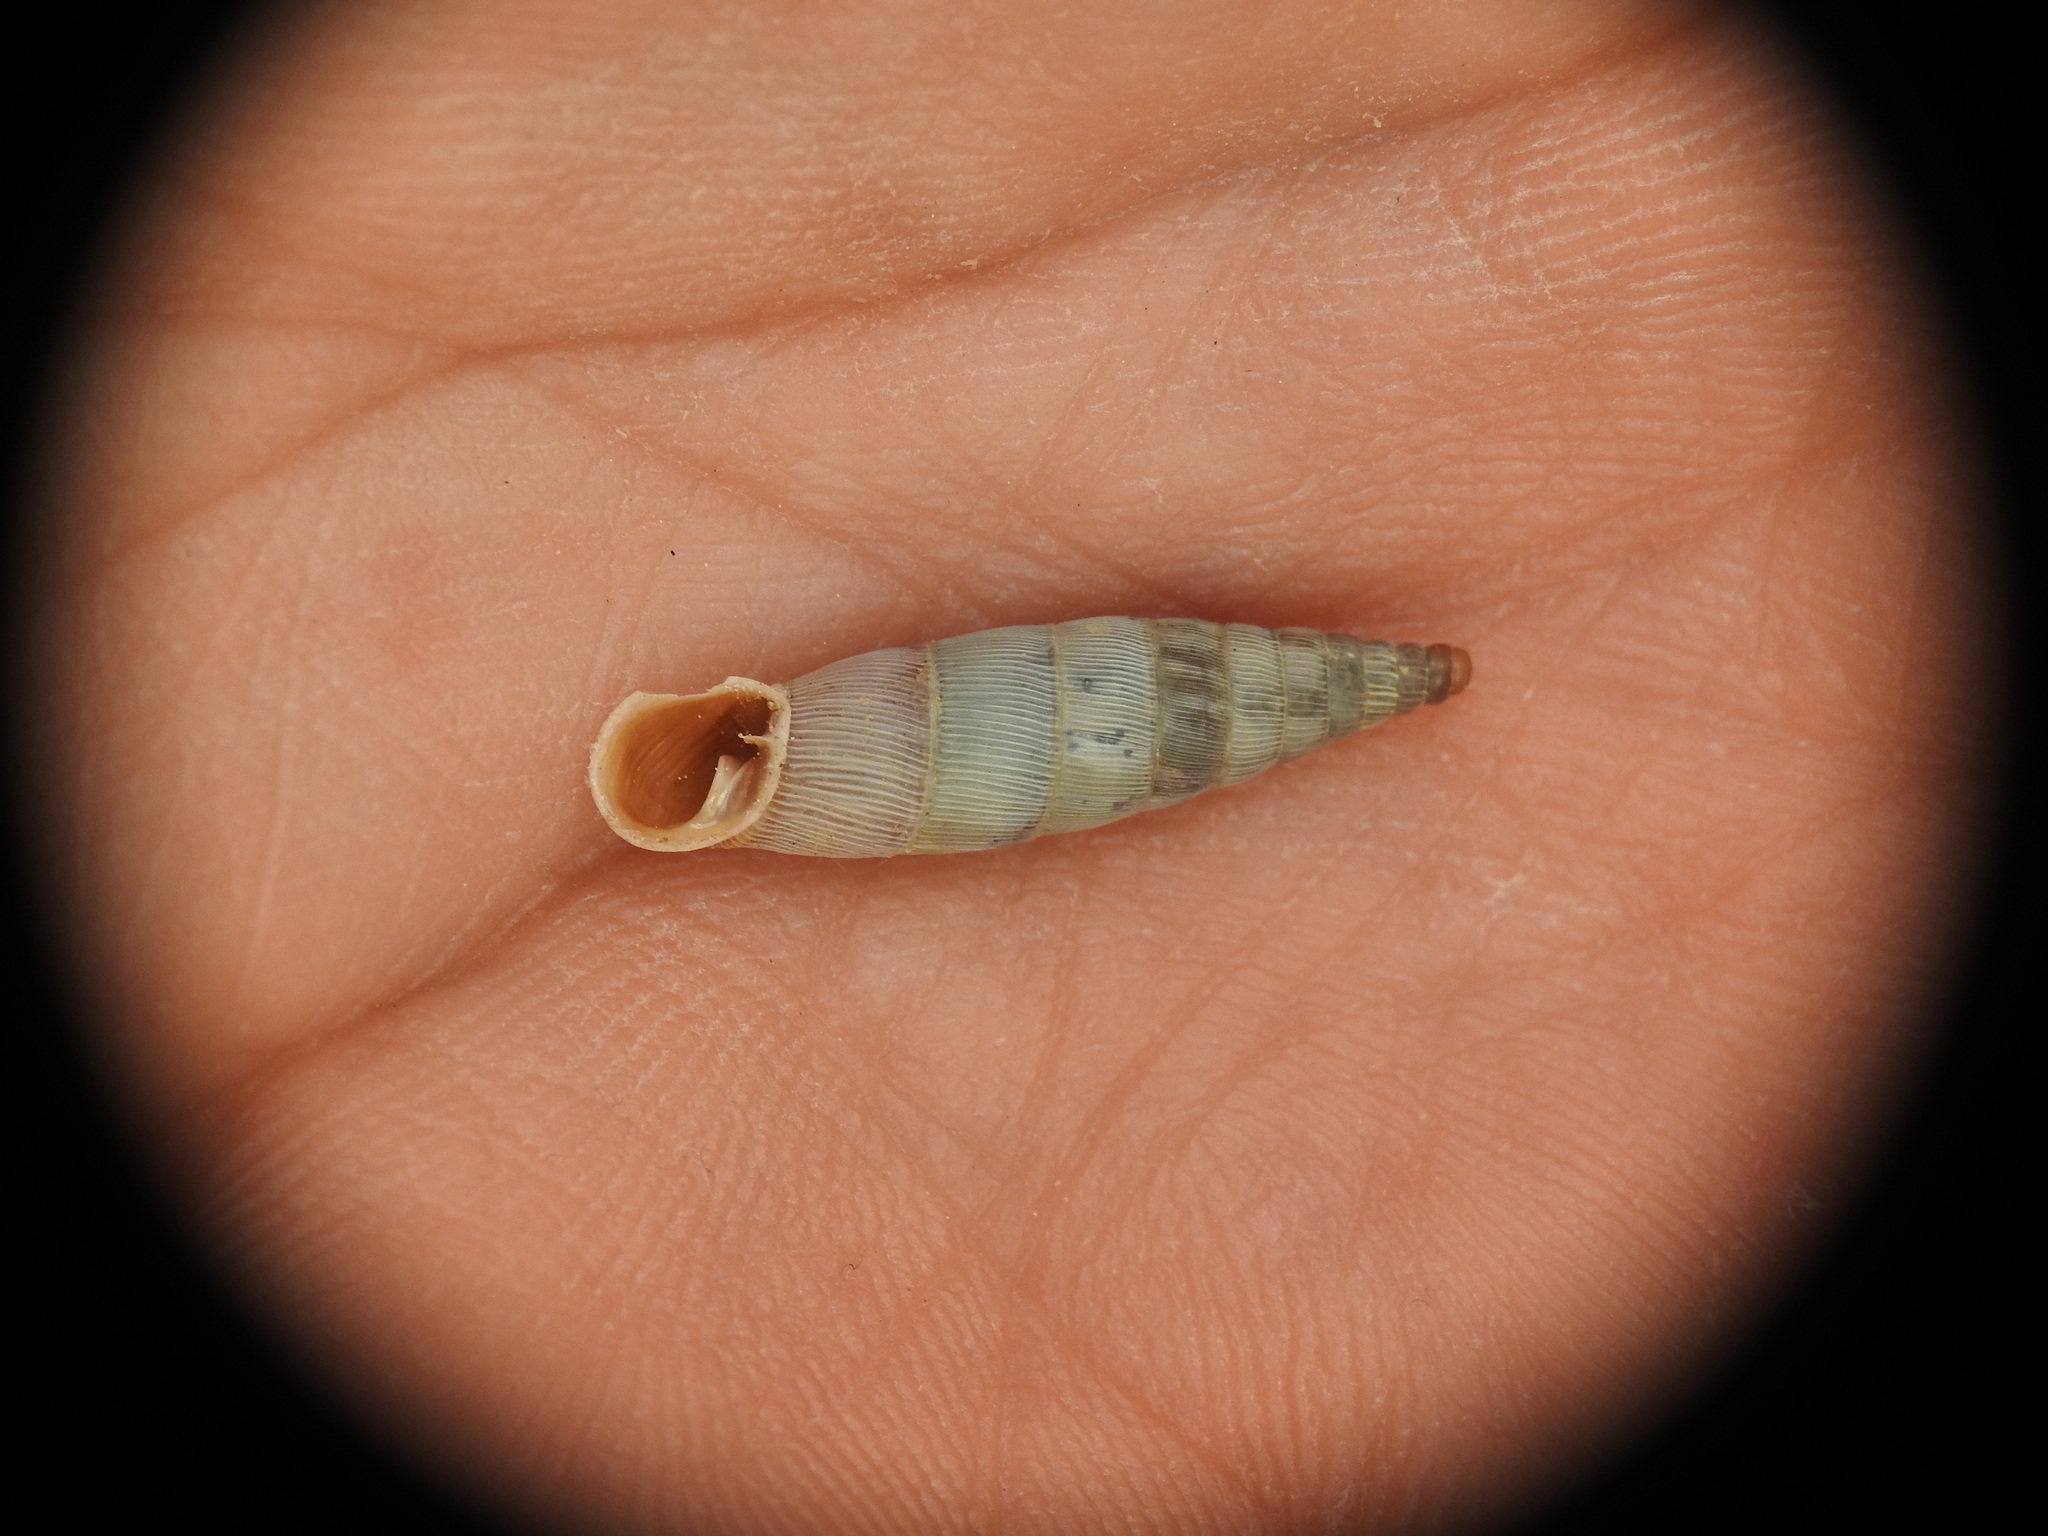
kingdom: Animalia
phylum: Mollusca
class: Gastropoda
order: Stylommatophora
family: Clausiliidae
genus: Albinaria
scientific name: Albinaria idaea
